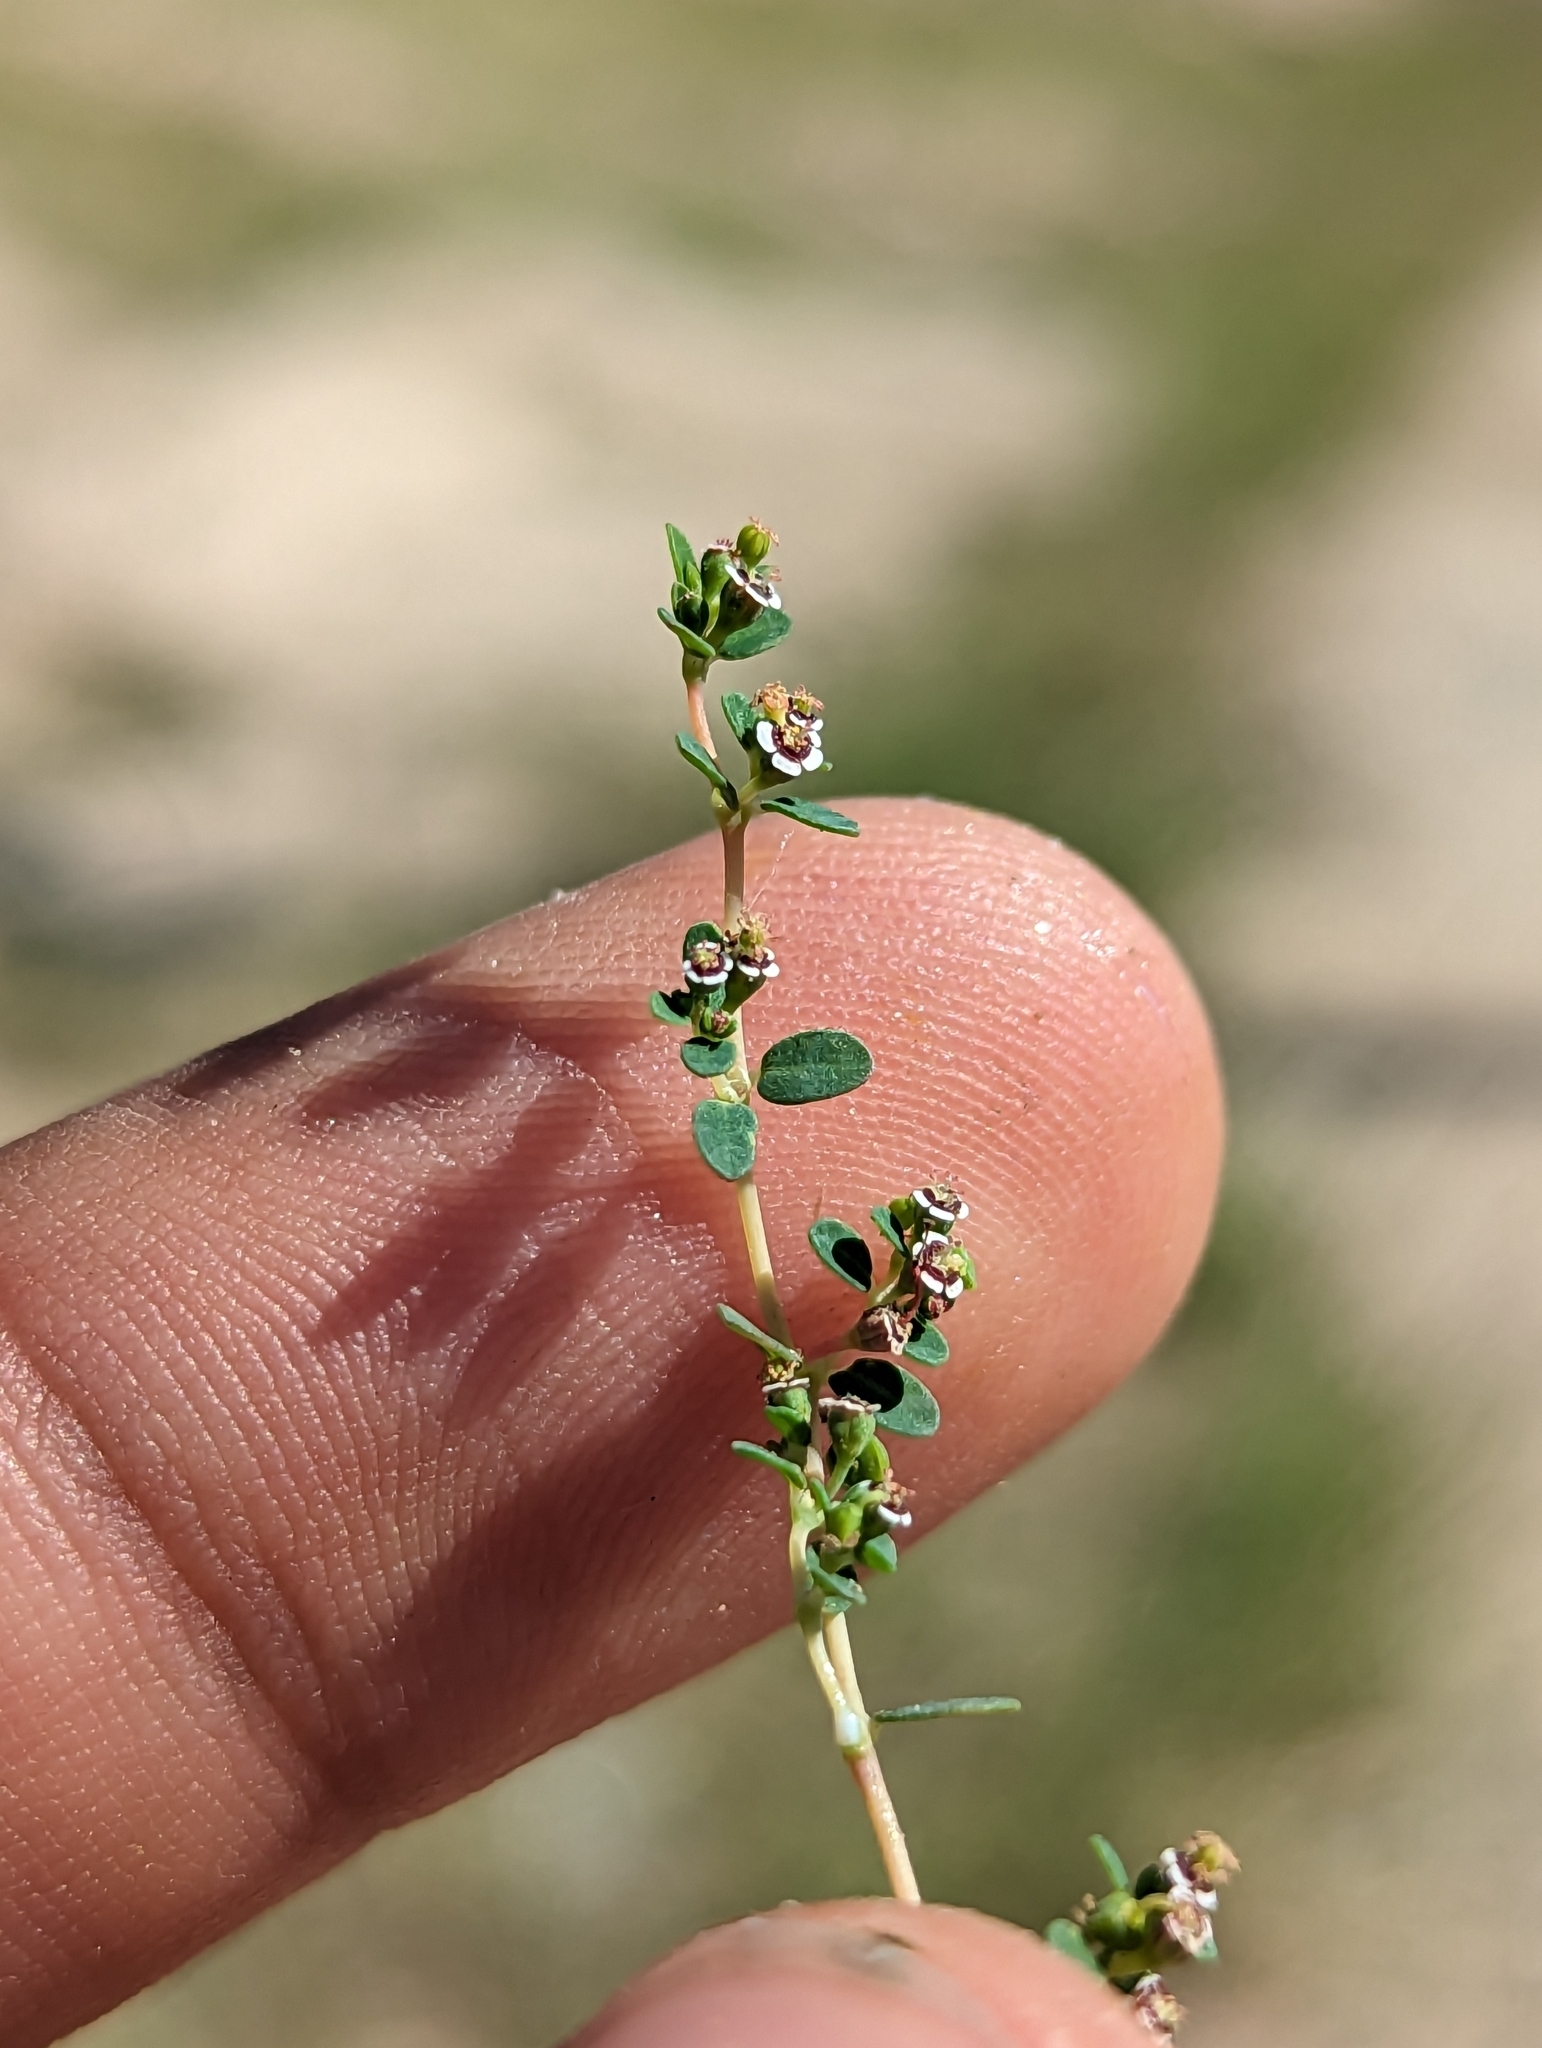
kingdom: Plantae
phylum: Tracheophyta
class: Magnoliopsida
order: Malpighiales
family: Euphorbiaceae
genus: Euphorbia
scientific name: Euphorbia polycarpa
